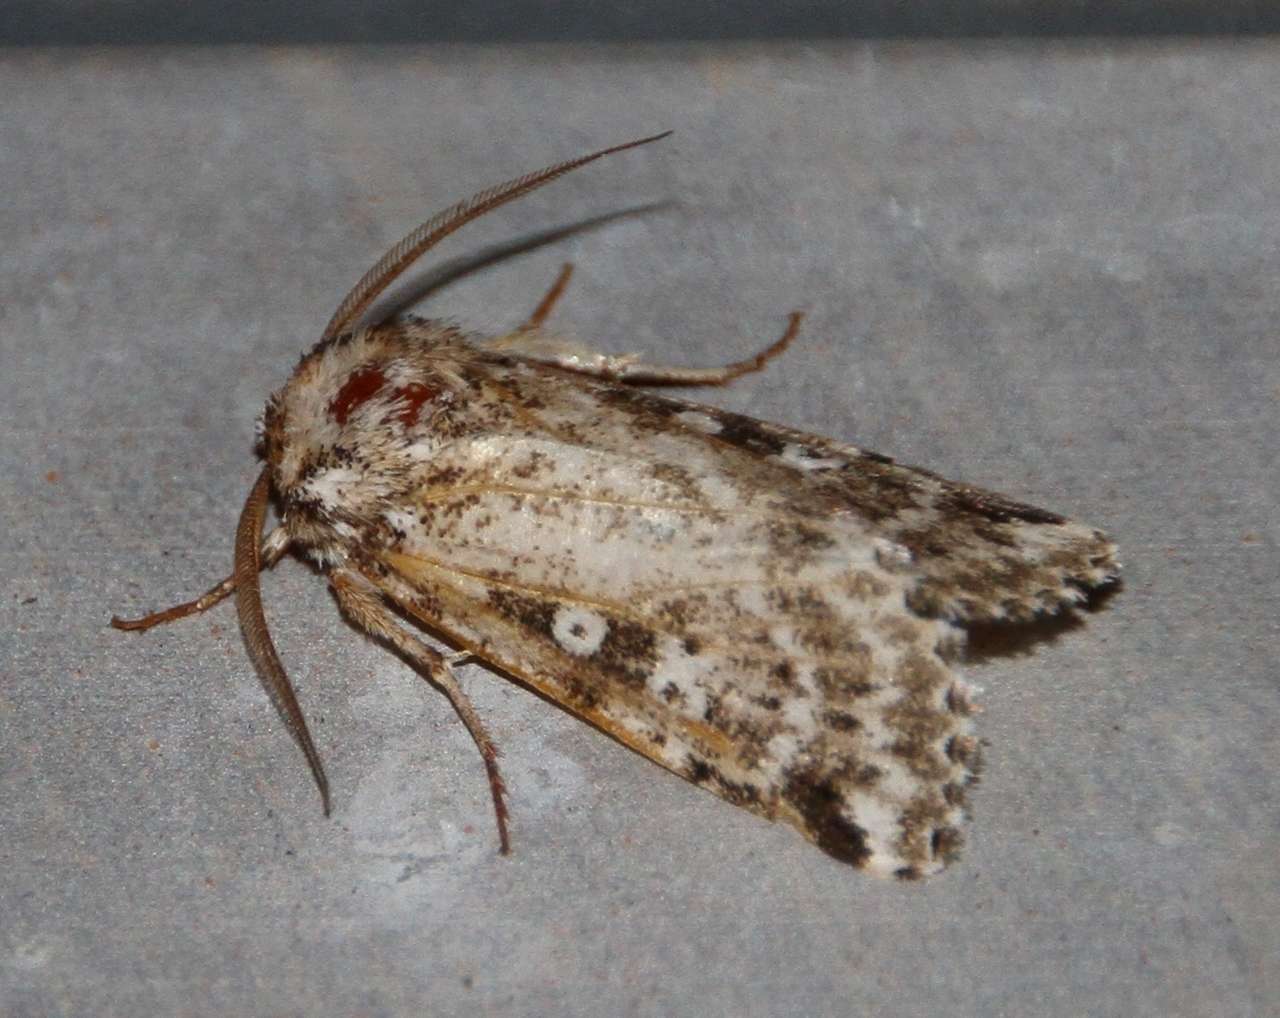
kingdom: Animalia
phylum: Arthropoda
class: Insecta
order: Lepidoptera
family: Noctuidae
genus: Ectopatria
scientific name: Ectopatria euglypta
